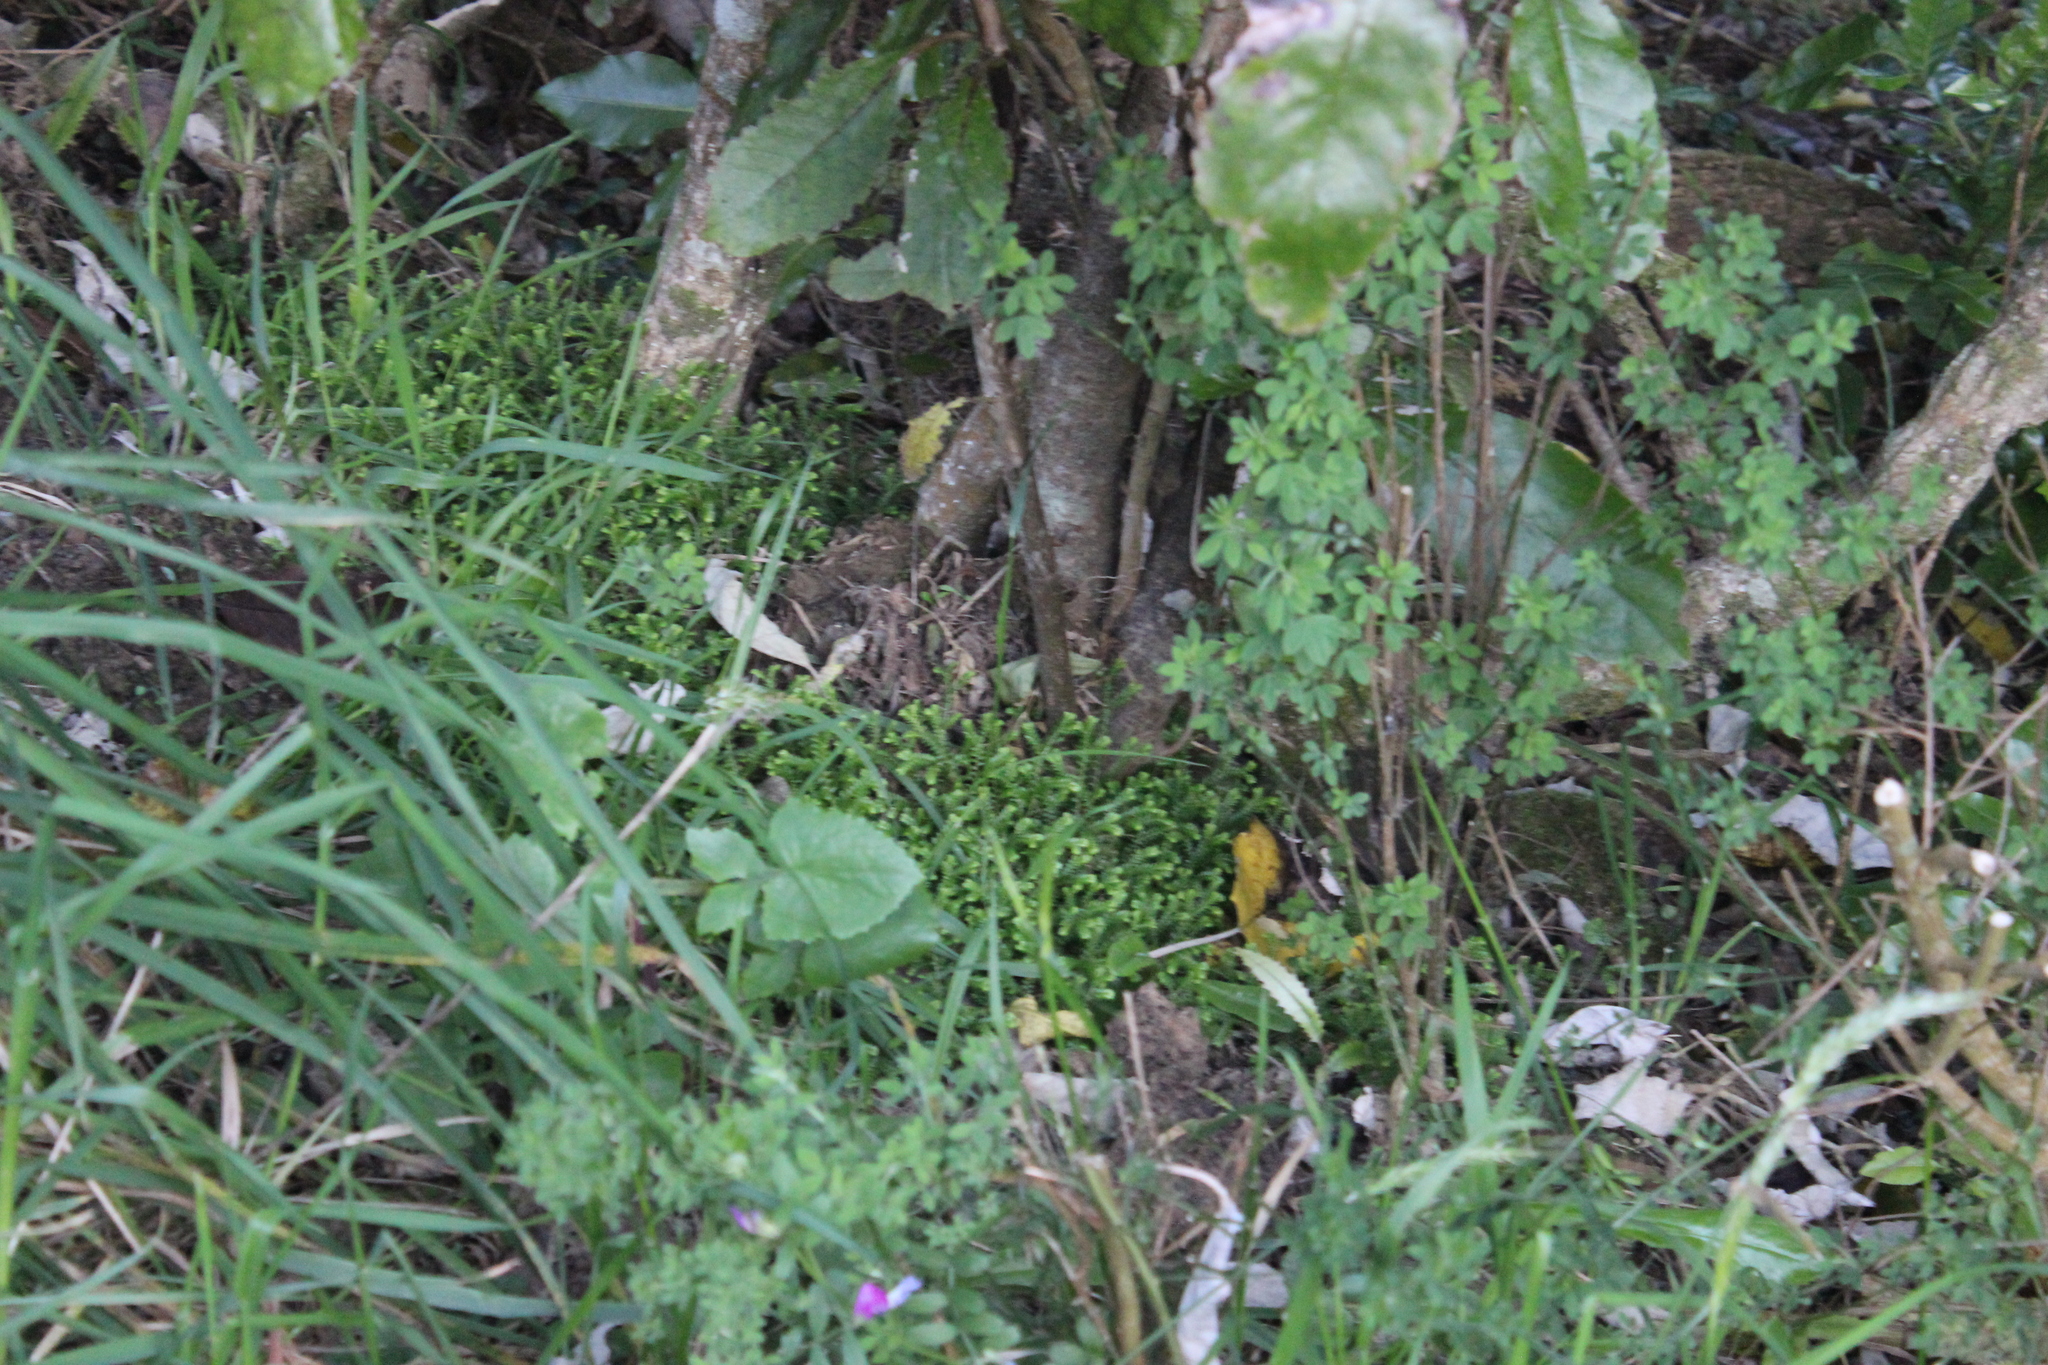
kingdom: Plantae
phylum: Tracheophyta
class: Lycopodiopsida
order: Selaginellales
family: Selaginellaceae
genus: Selaginella
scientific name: Selaginella kraussiana
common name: Krauss' spikemoss
